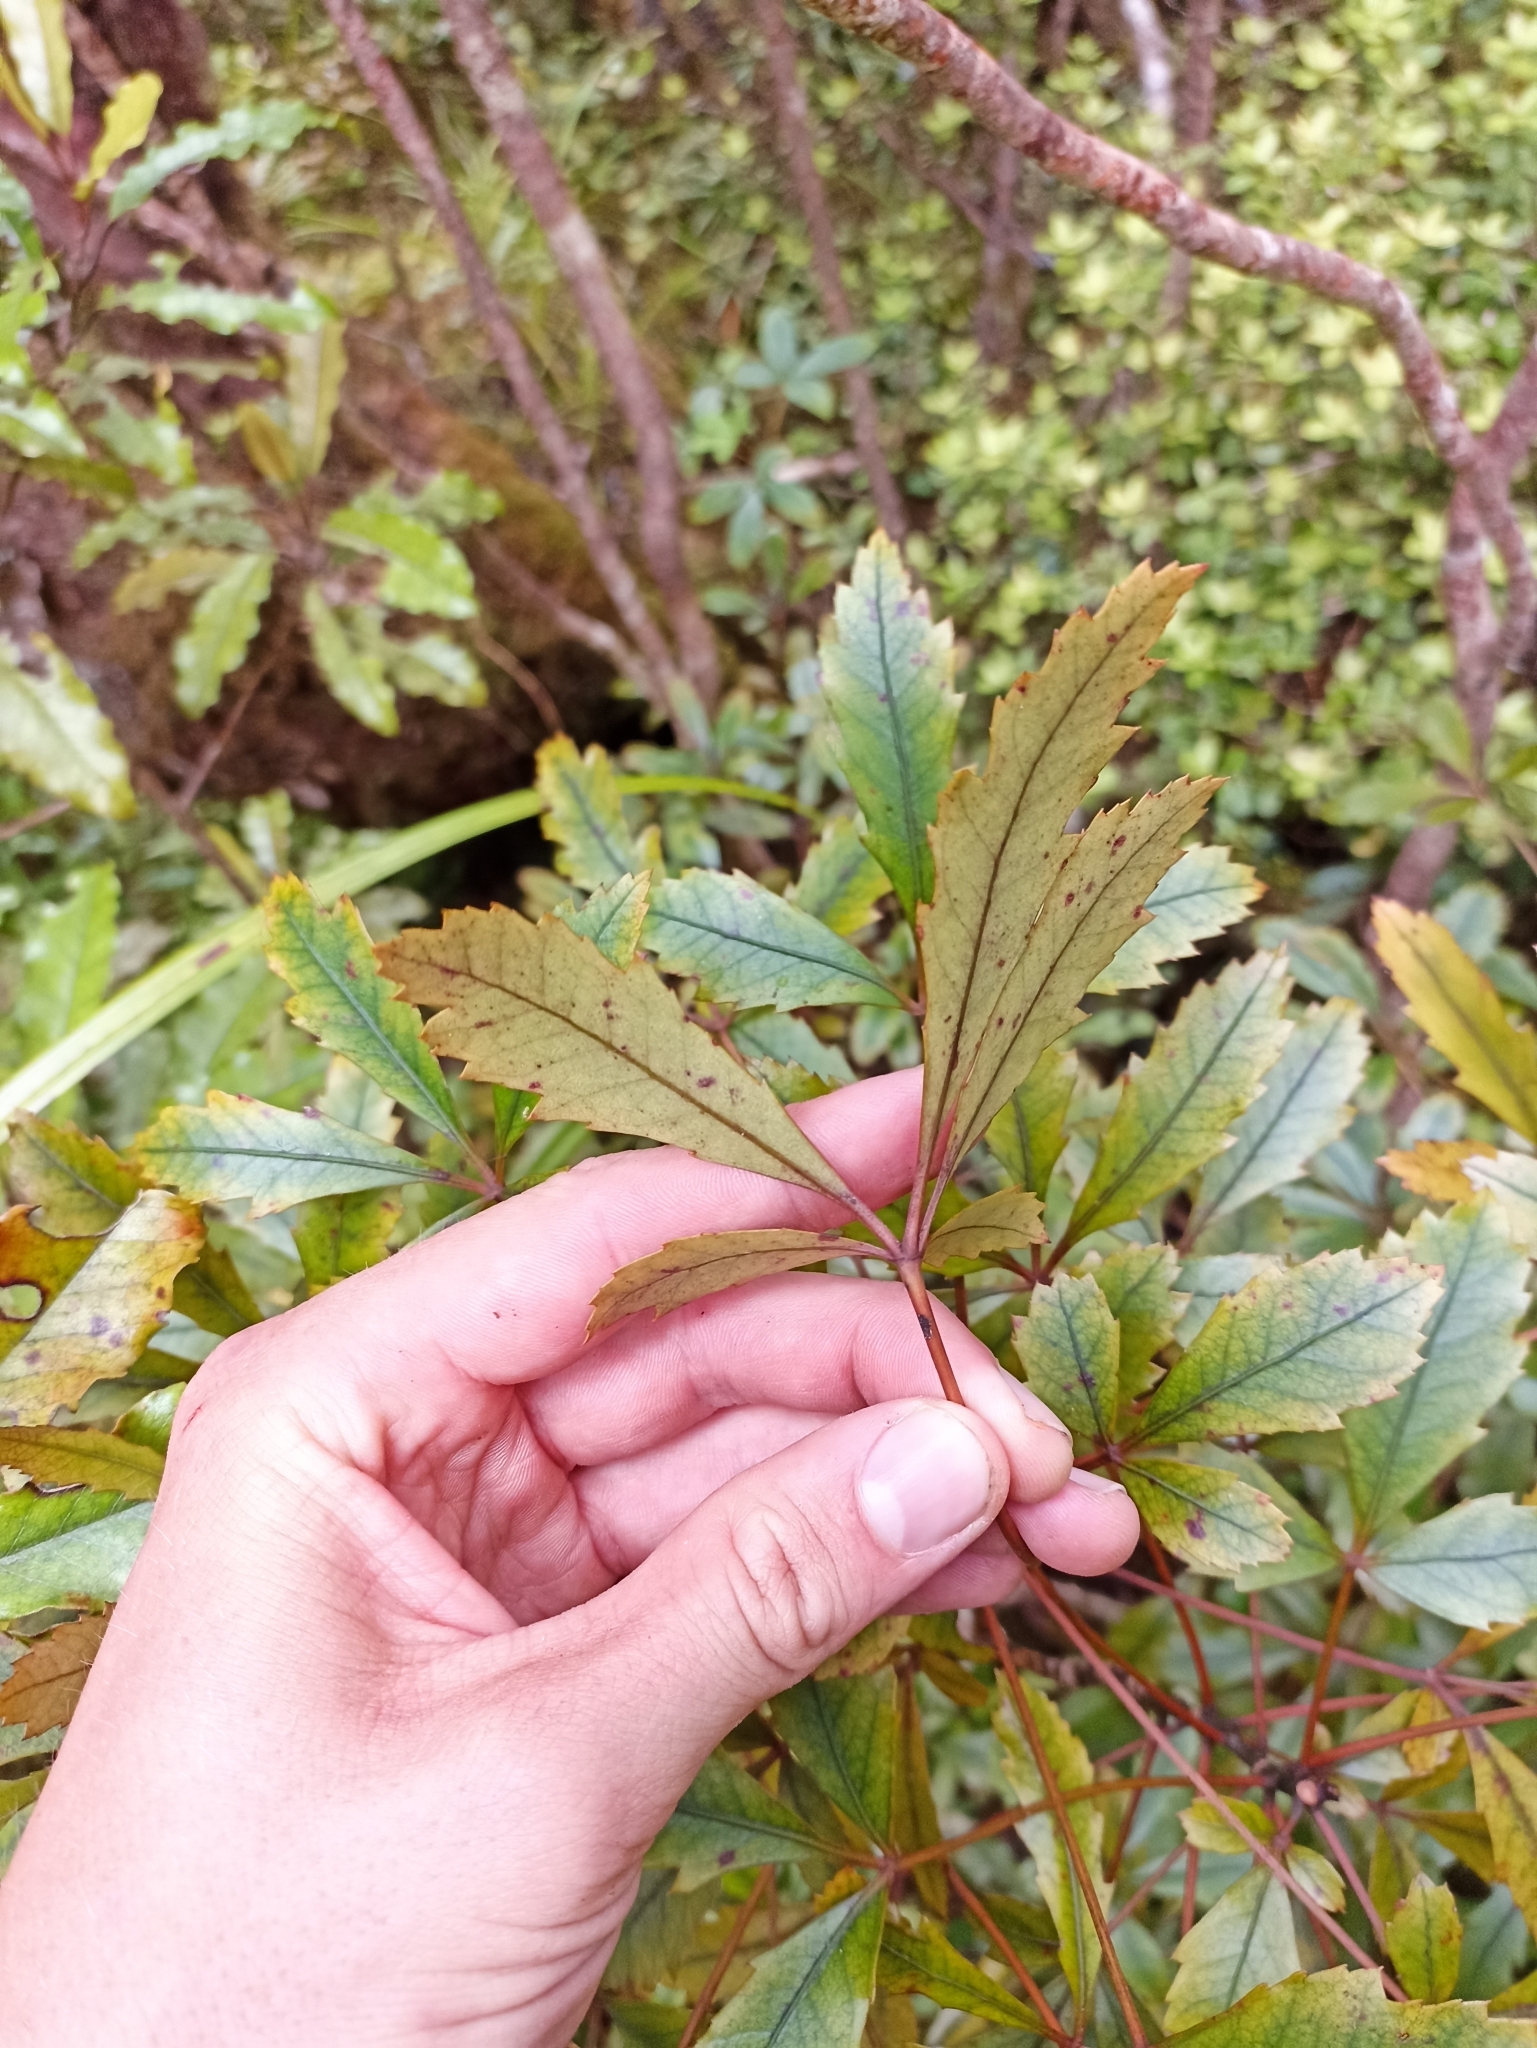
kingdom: Plantae
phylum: Tracheophyta
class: Magnoliopsida
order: Apiales
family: Araliaceae
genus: Pseudopanax
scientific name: Pseudopanax discolor
